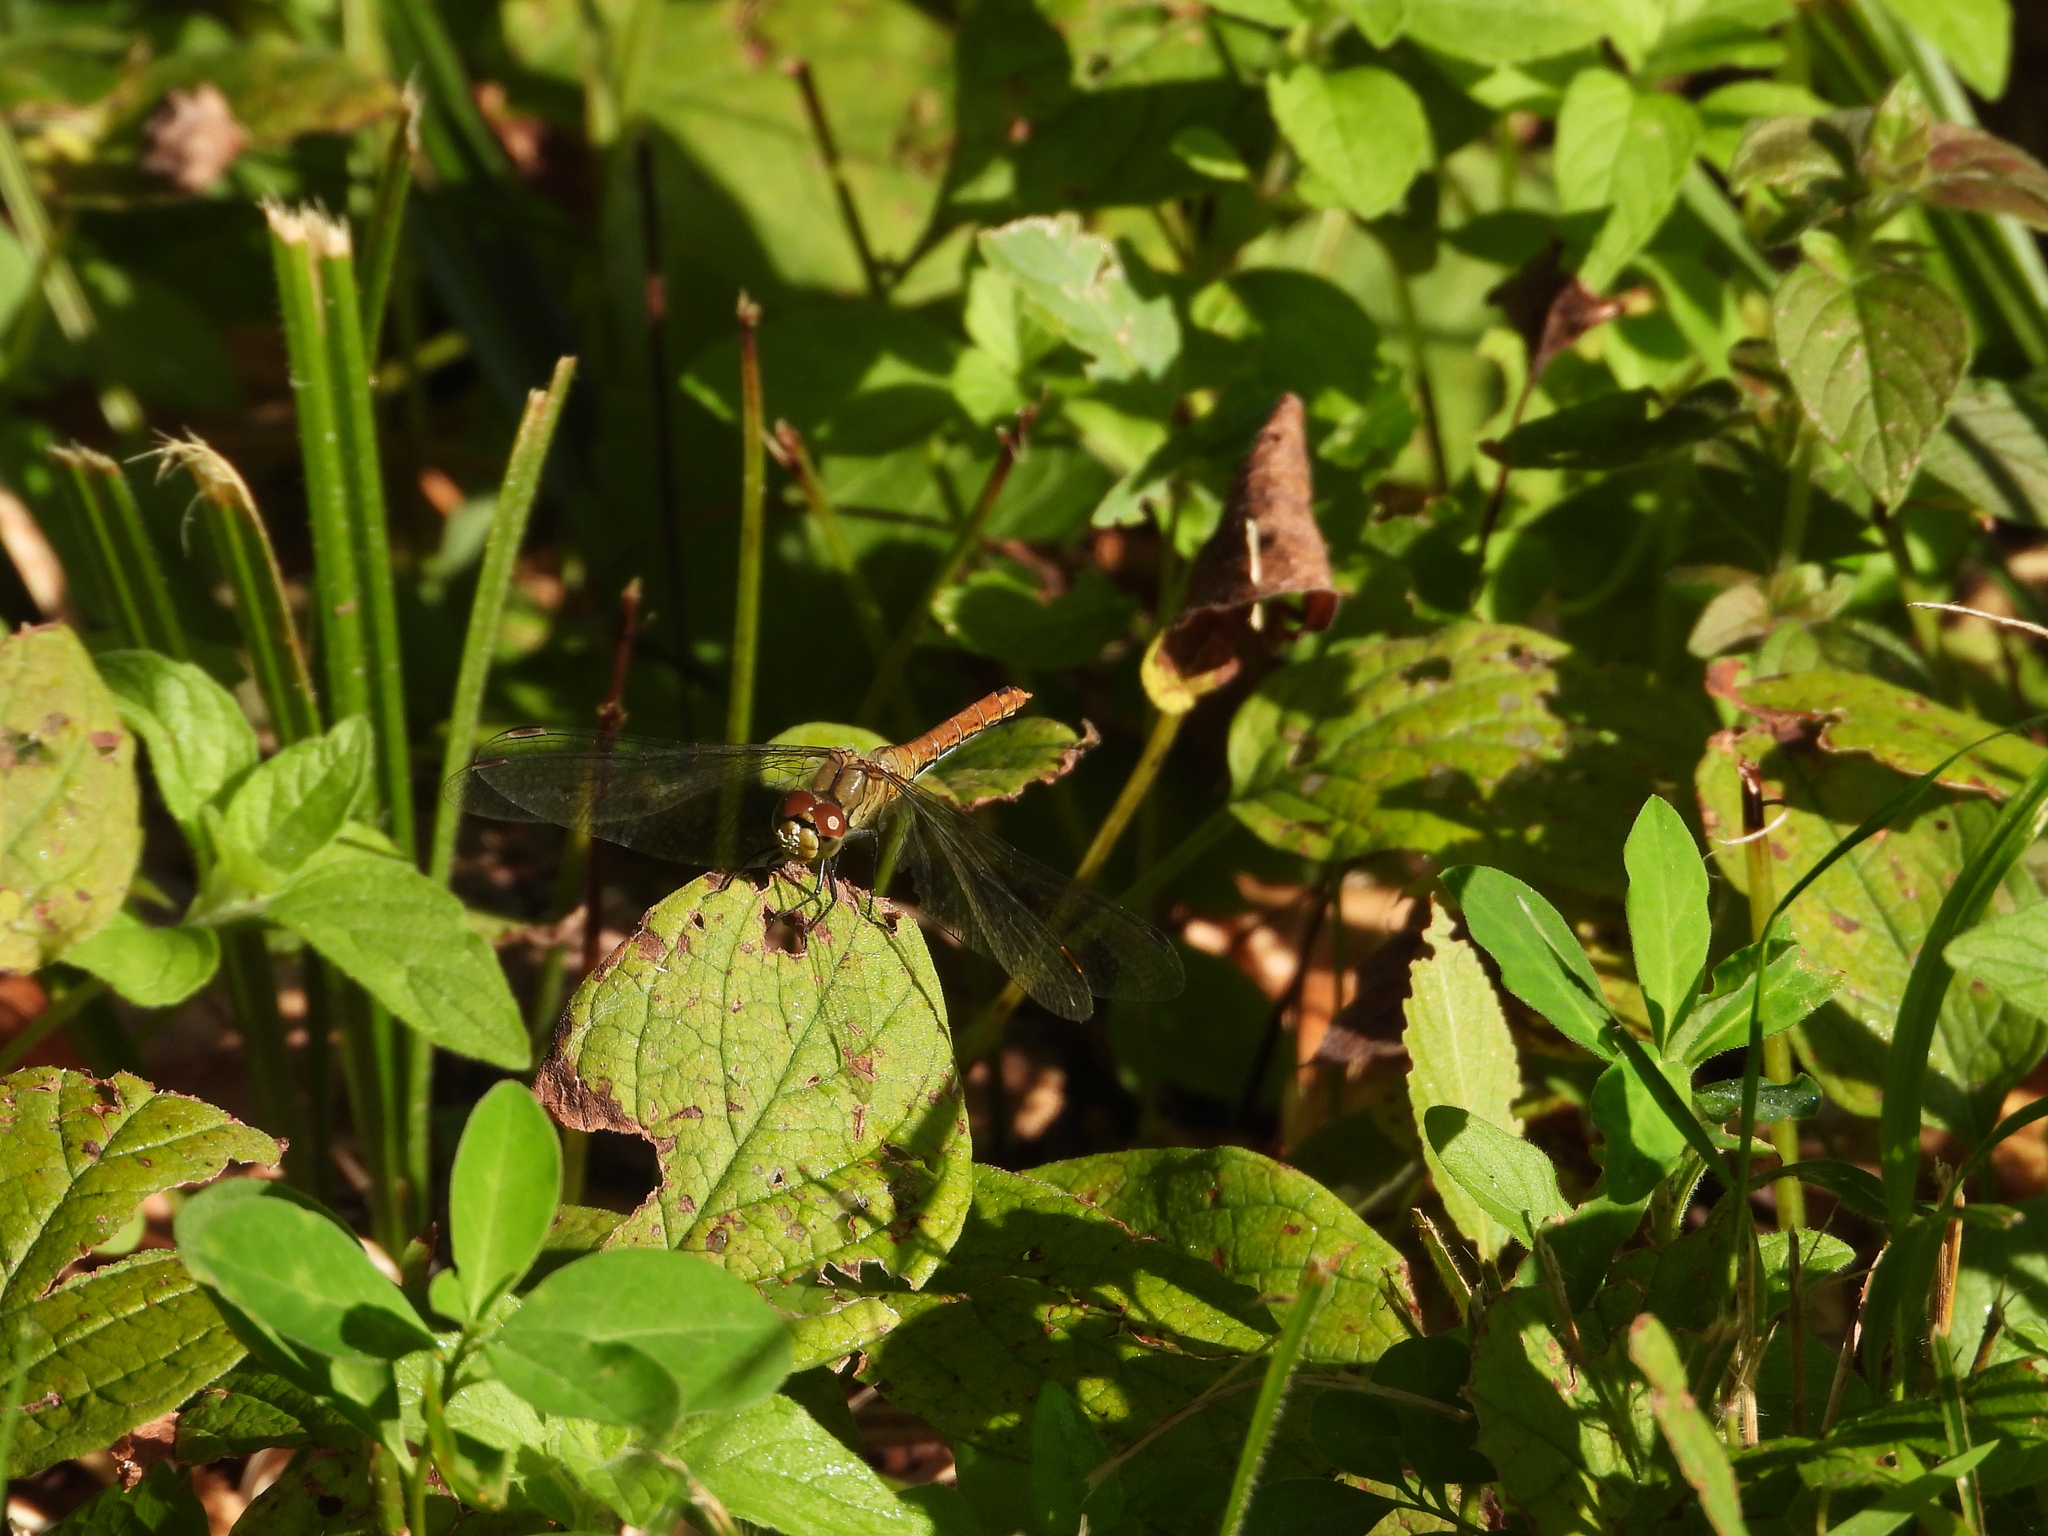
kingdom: Animalia
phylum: Arthropoda
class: Insecta
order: Odonata
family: Libellulidae
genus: Sympetrum
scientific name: Sympetrum sanguineum
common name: Ruddy darter
